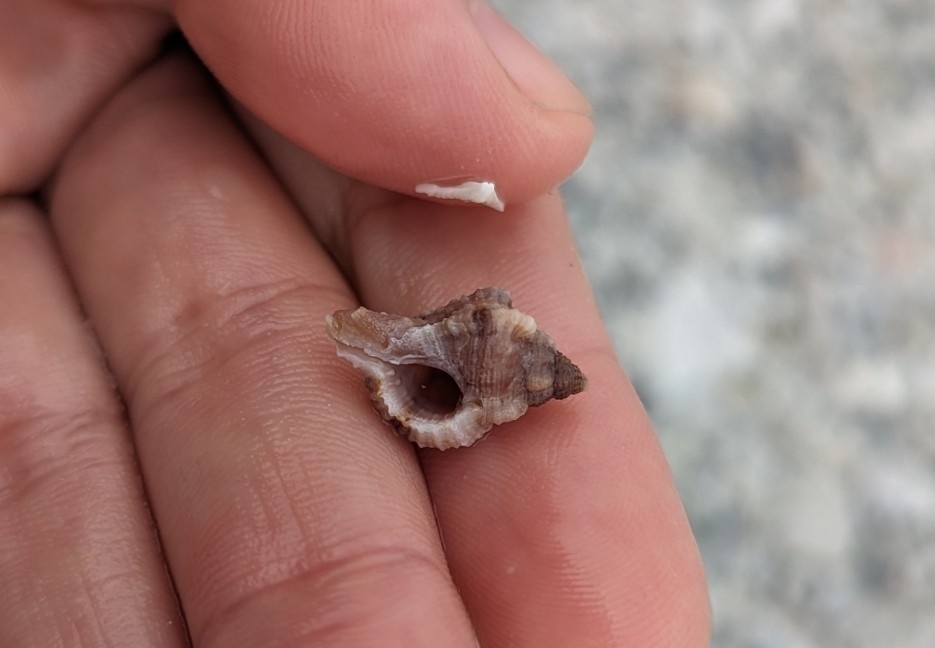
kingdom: Animalia
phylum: Mollusca
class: Gastropoda
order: Neogastropoda
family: Muricidae
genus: Phyllonotus
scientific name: Phyllonotus pomum
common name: Apple murex
